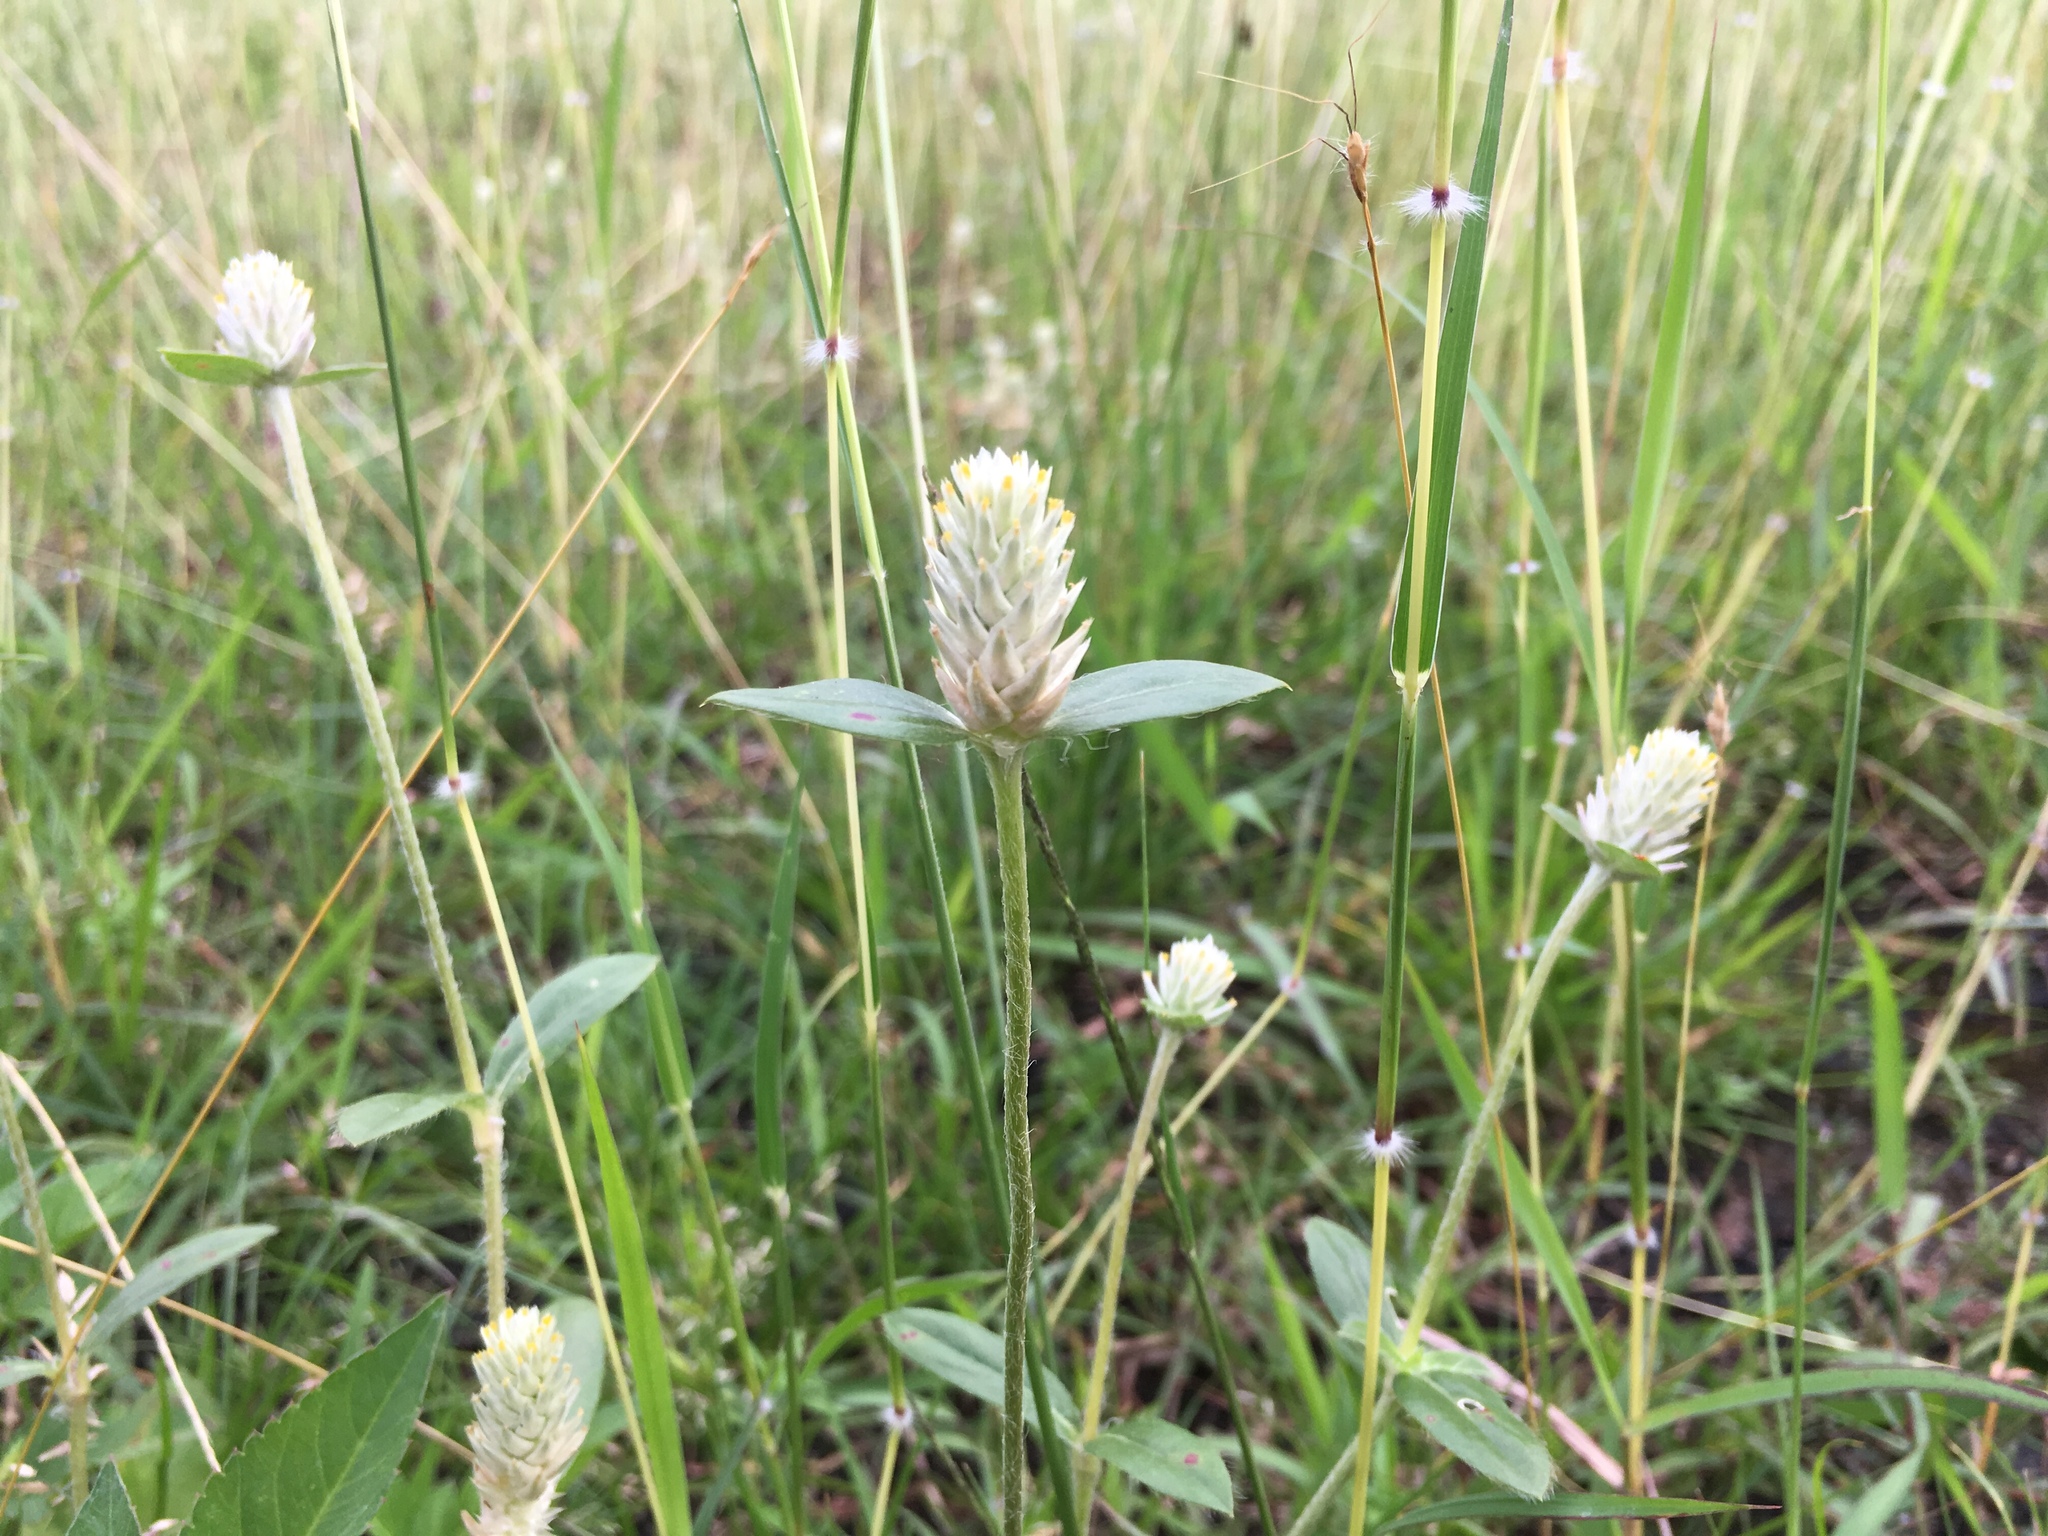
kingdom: Plantae
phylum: Tracheophyta
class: Magnoliopsida
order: Caryophyllales
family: Amaranthaceae
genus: Gomphrena
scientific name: Gomphrena celosioides
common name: Gomphrena-weed
